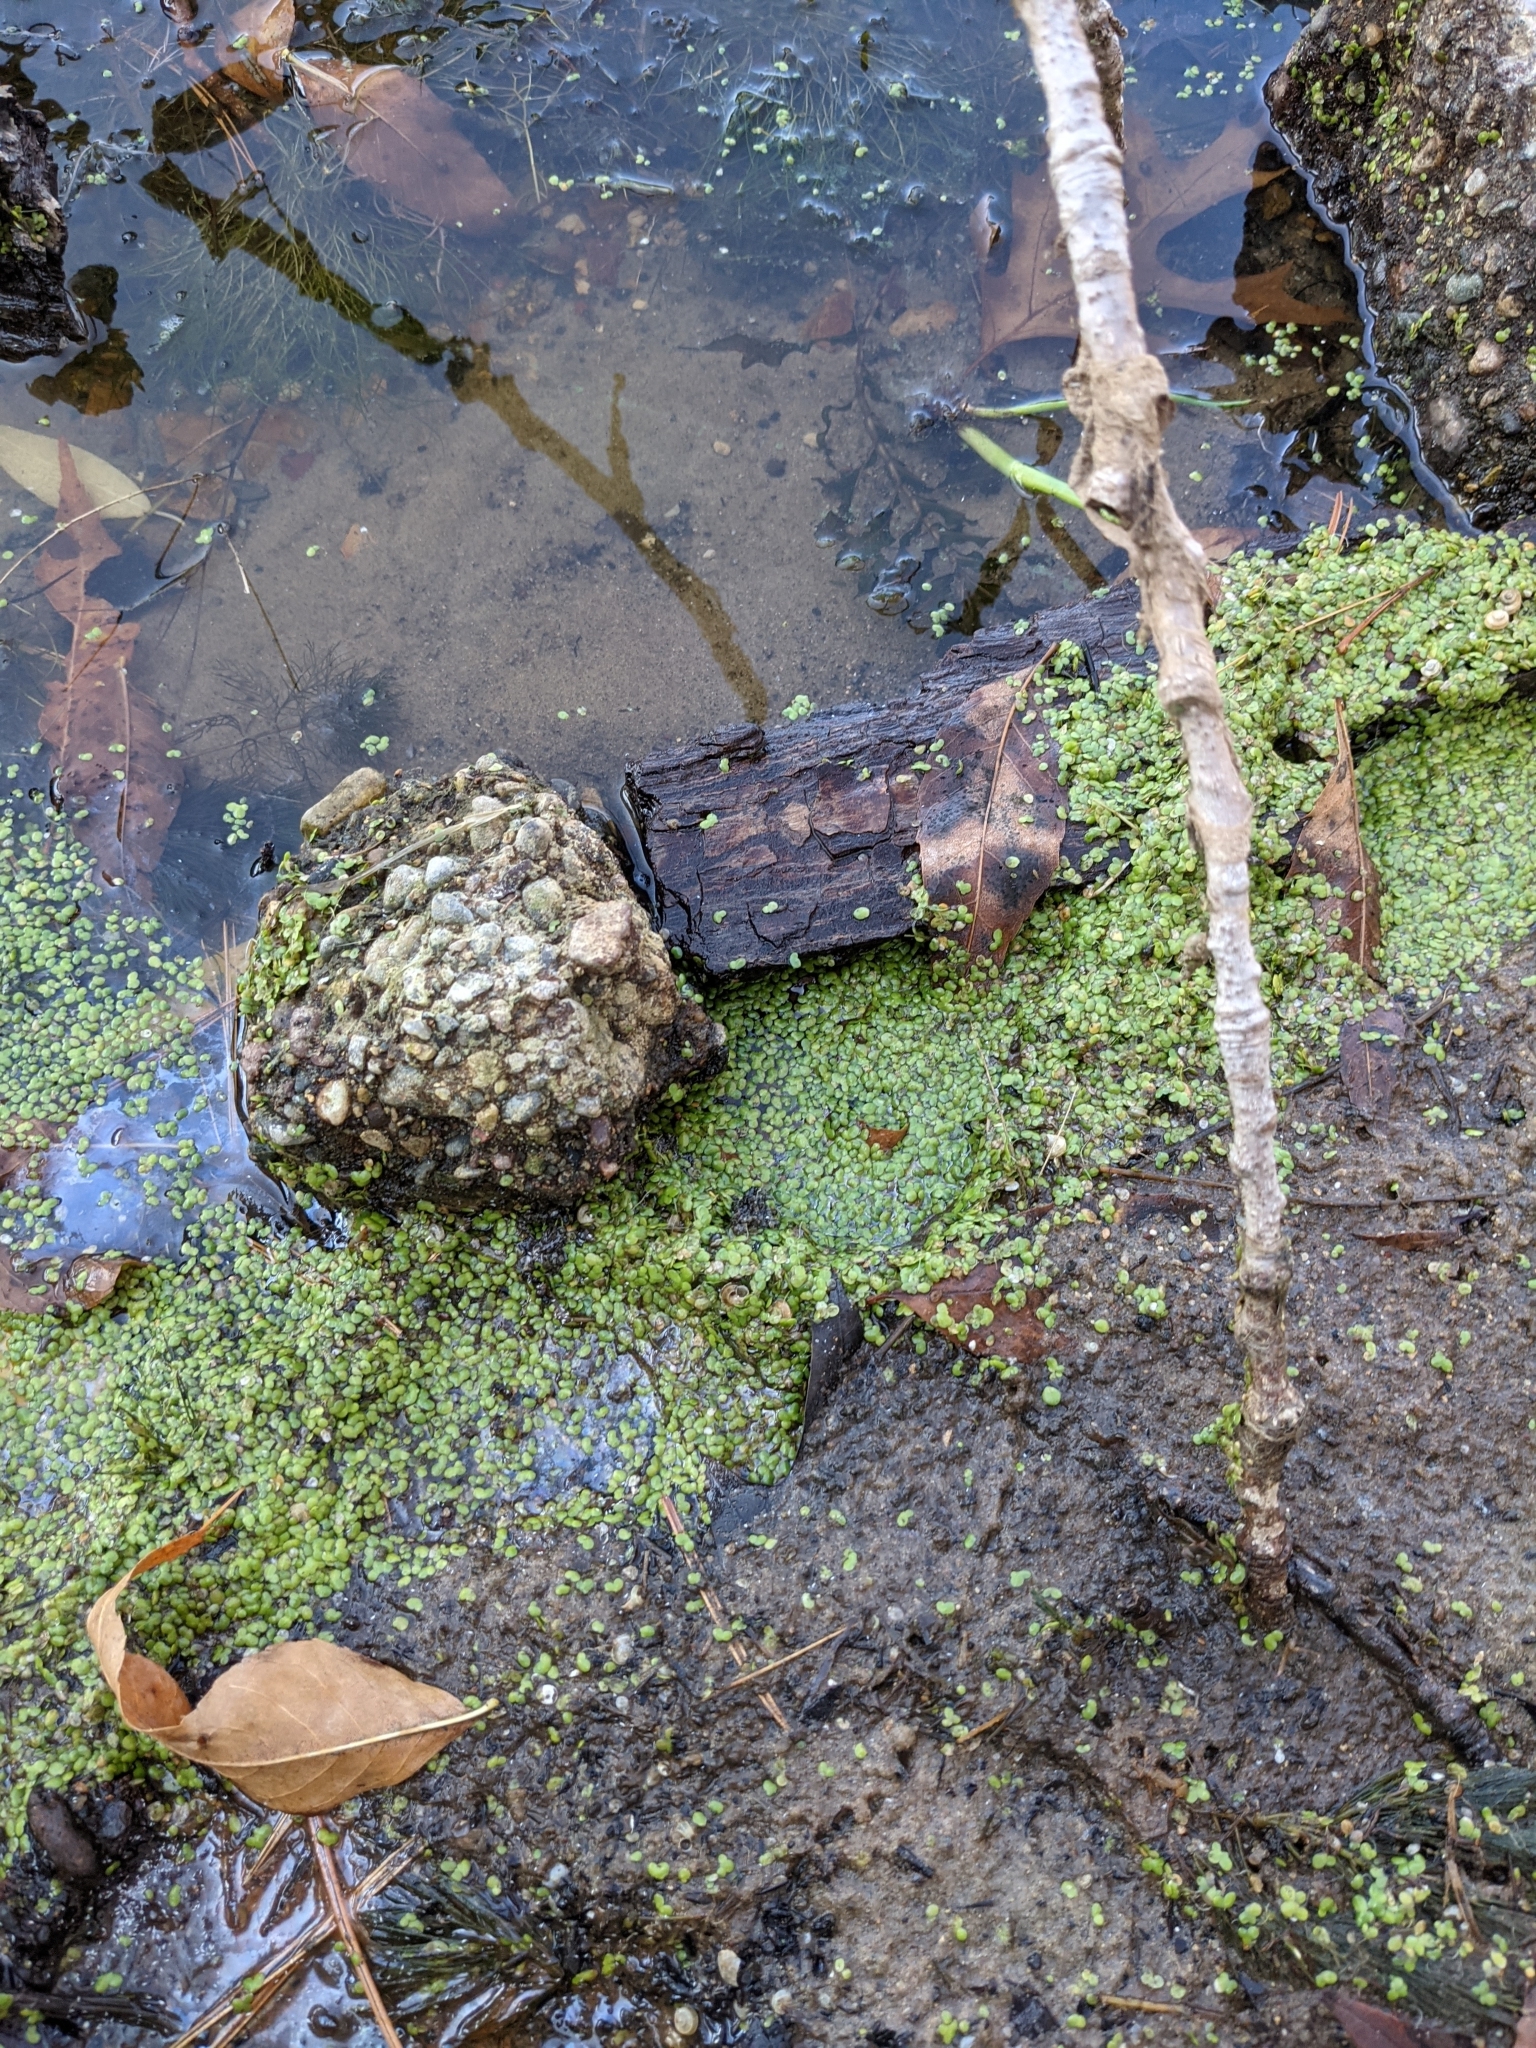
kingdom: Plantae
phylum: Tracheophyta
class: Liliopsida
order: Alismatales
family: Araceae
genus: Lemna
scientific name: Lemna
